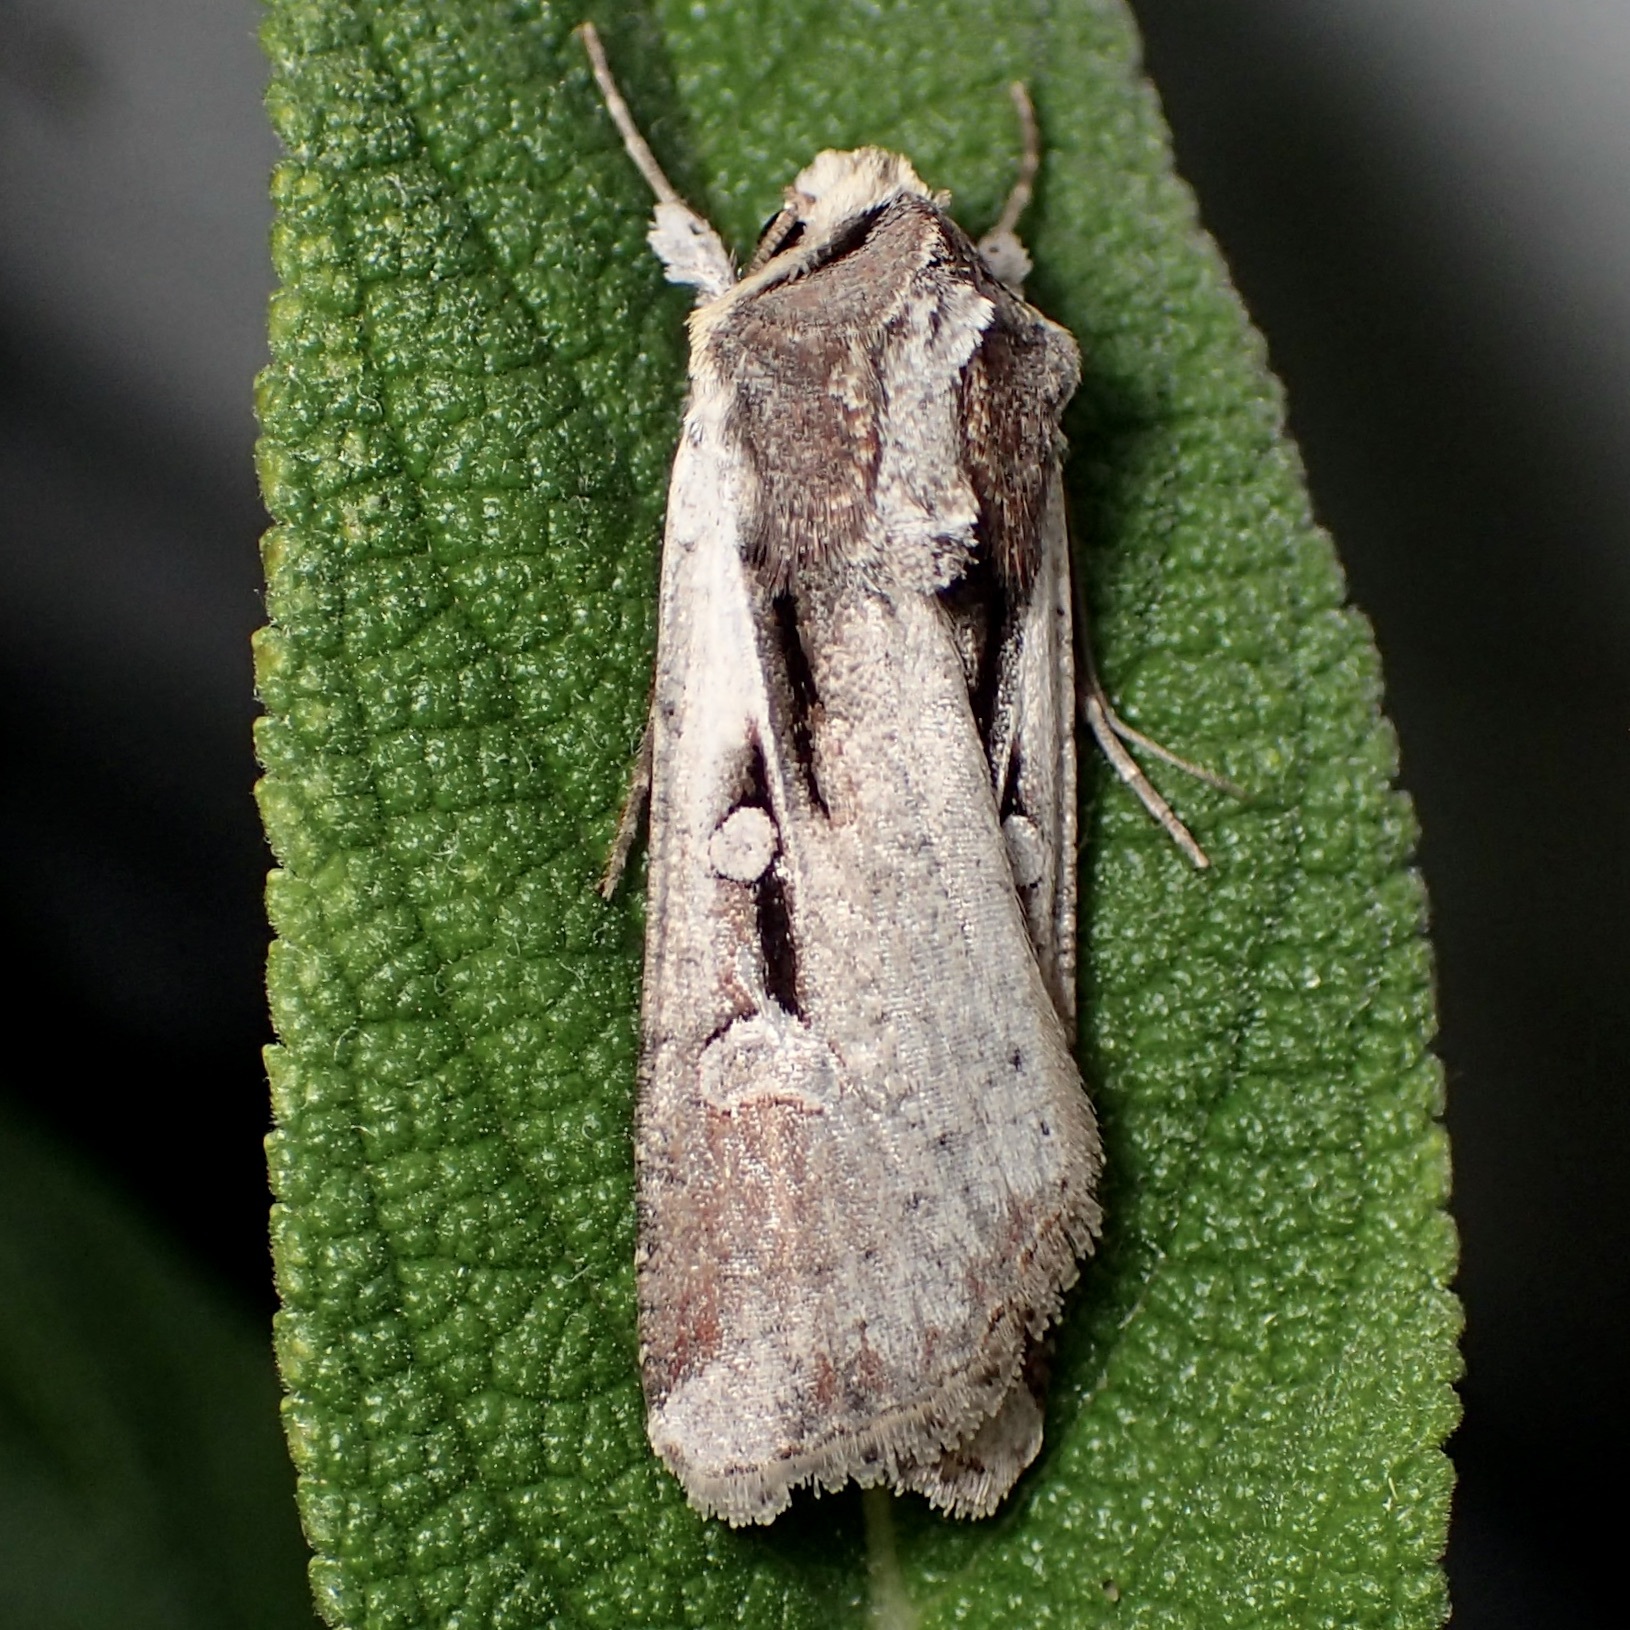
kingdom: Animalia
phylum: Arthropoda
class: Insecta
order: Lepidoptera
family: Noctuidae
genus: Hemieuxoa
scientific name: Hemieuxoa rudens
